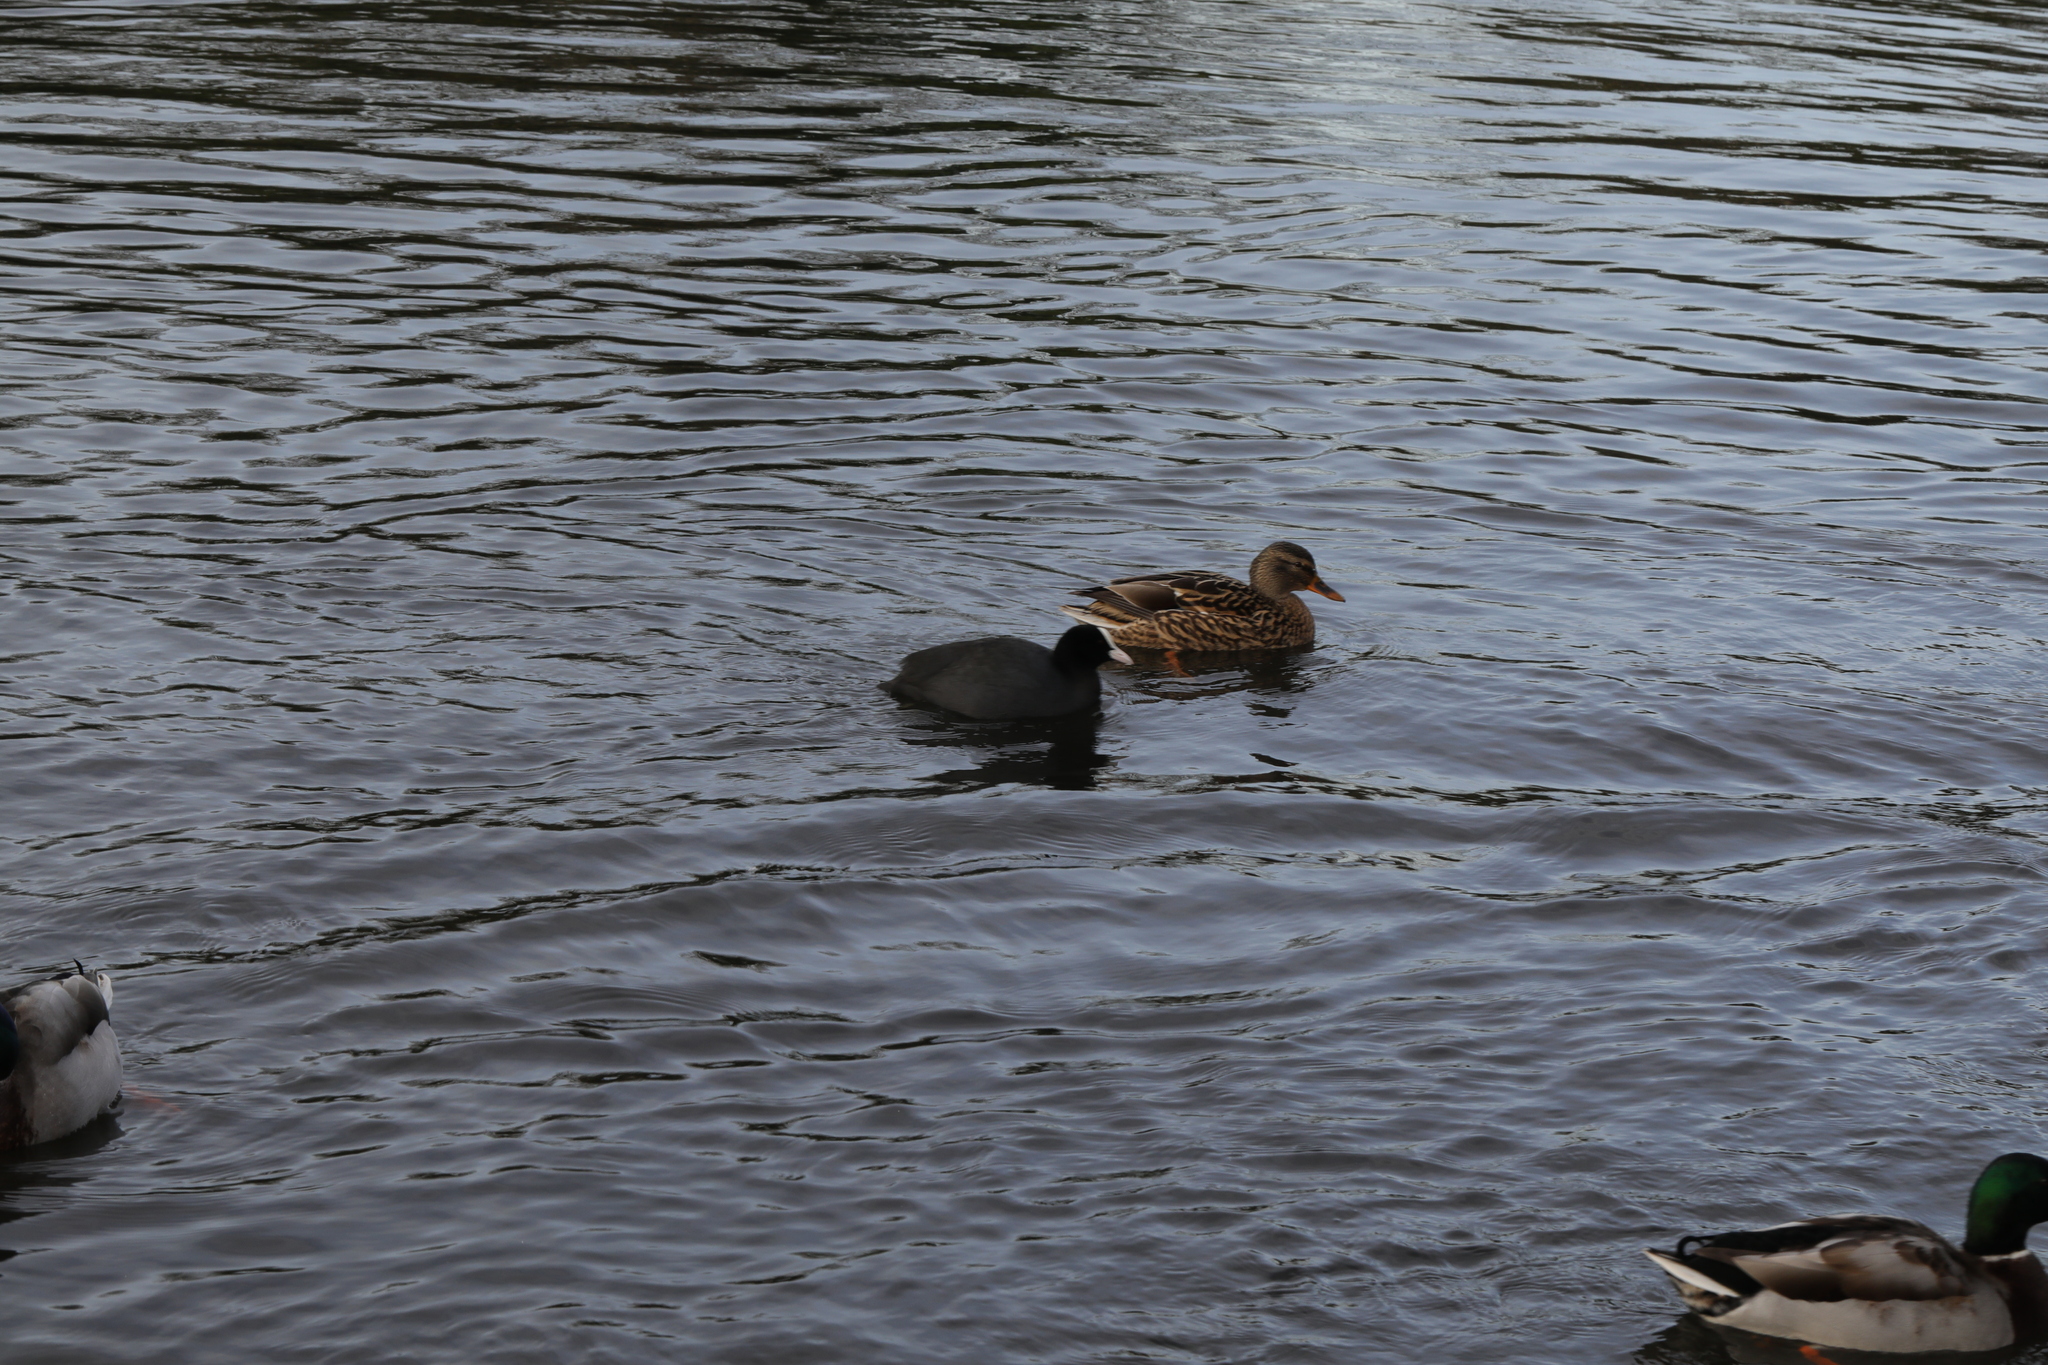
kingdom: Animalia
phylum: Chordata
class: Aves
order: Anseriformes
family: Anatidae
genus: Anas
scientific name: Anas platyrhynchos
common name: Mallard
